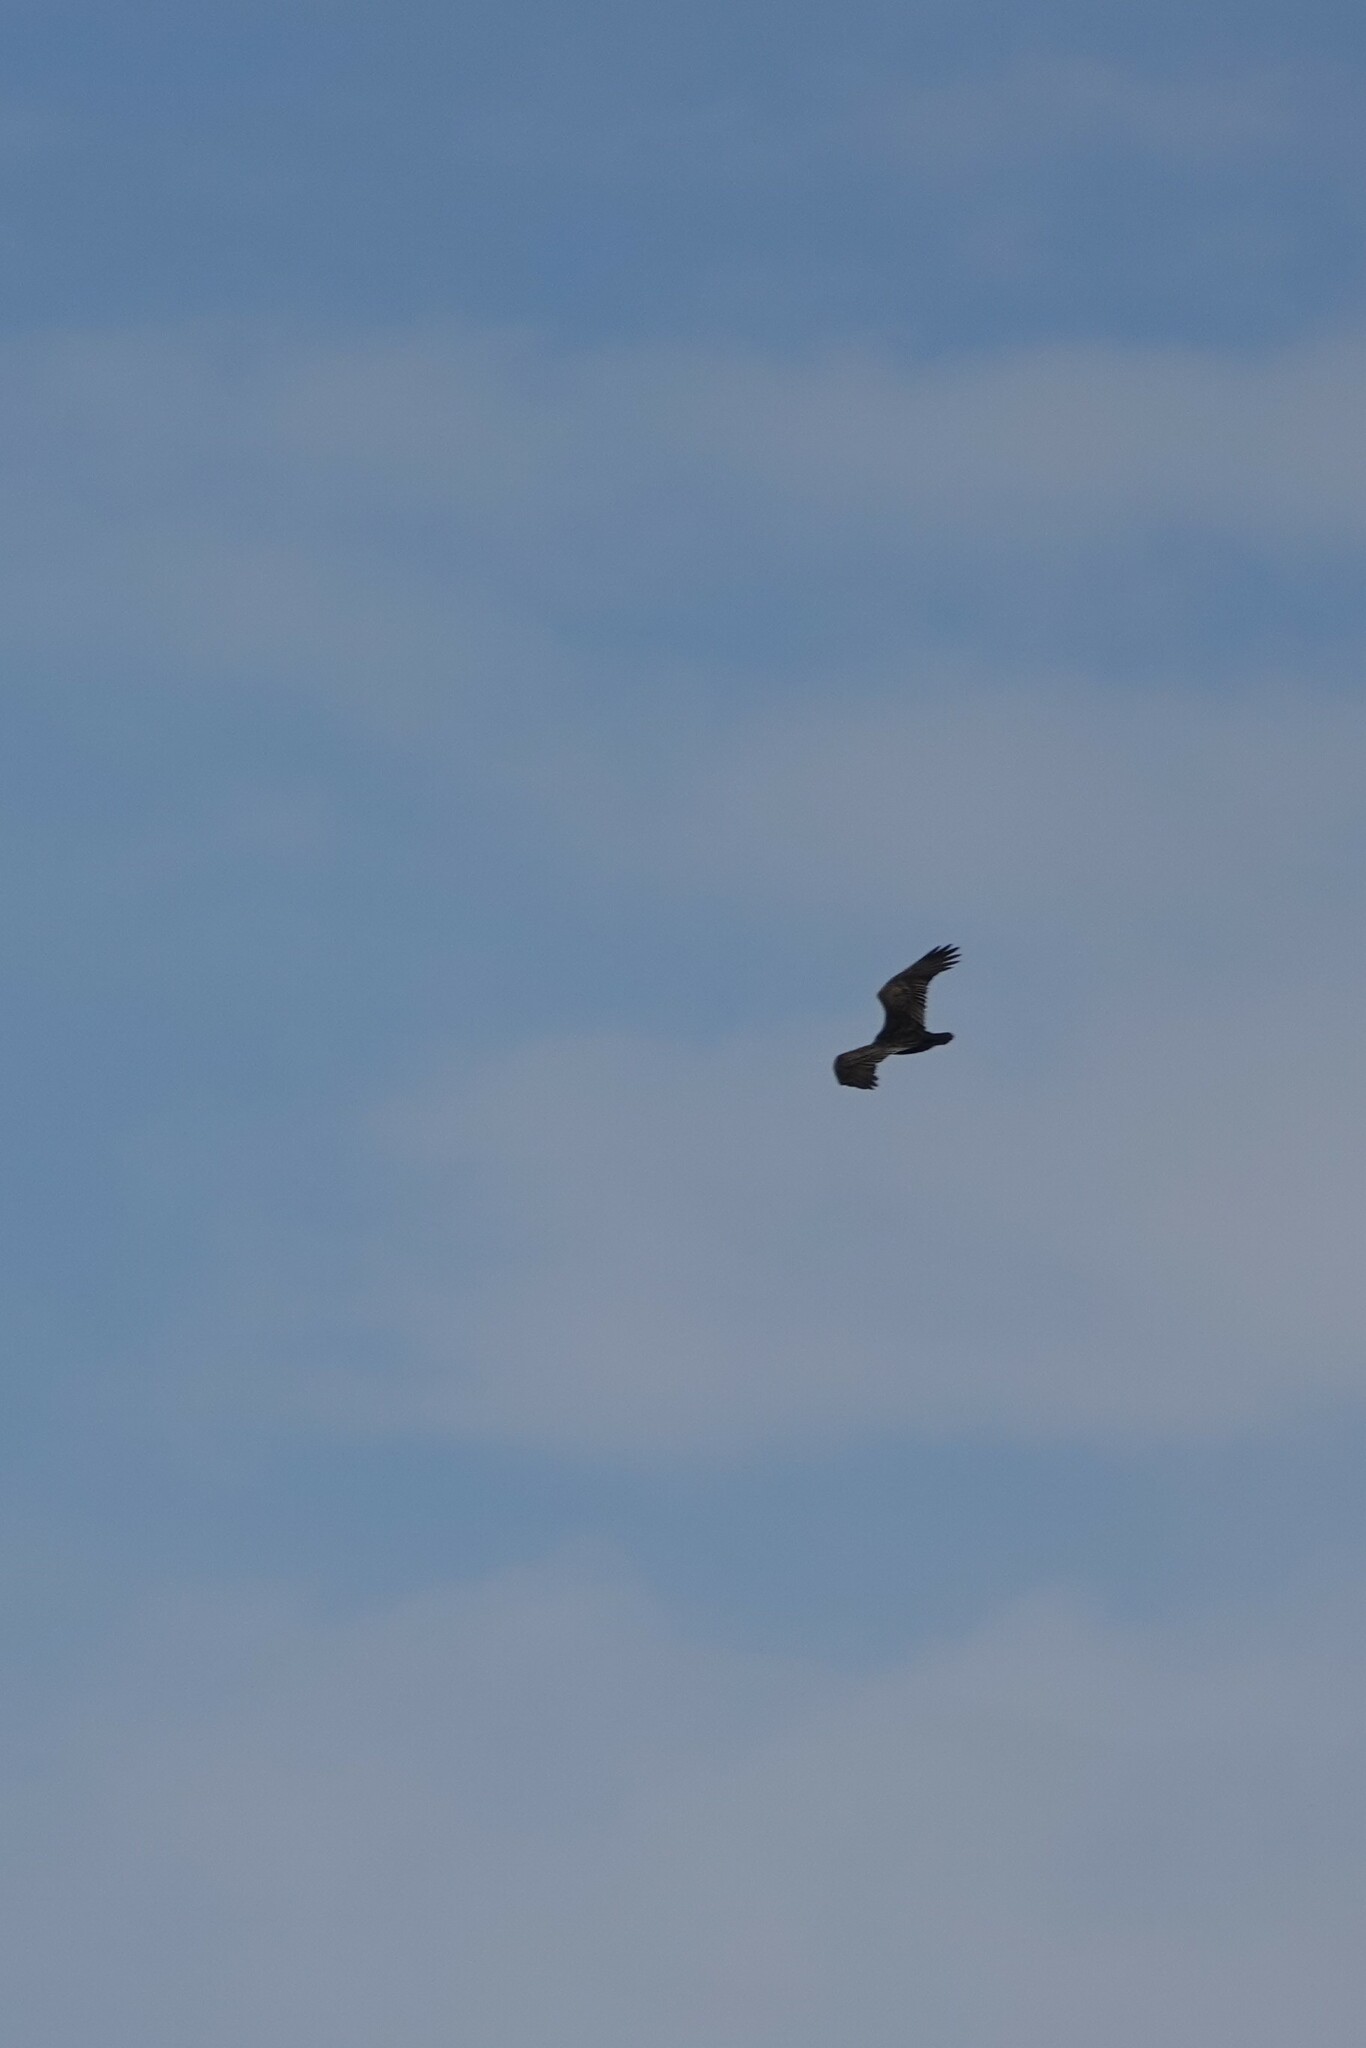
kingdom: Animalia
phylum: Chordata
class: Aves
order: Accipitriformes
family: Cathartidae
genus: Cathartes
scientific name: Cathartes aura
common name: Turkey vulture
